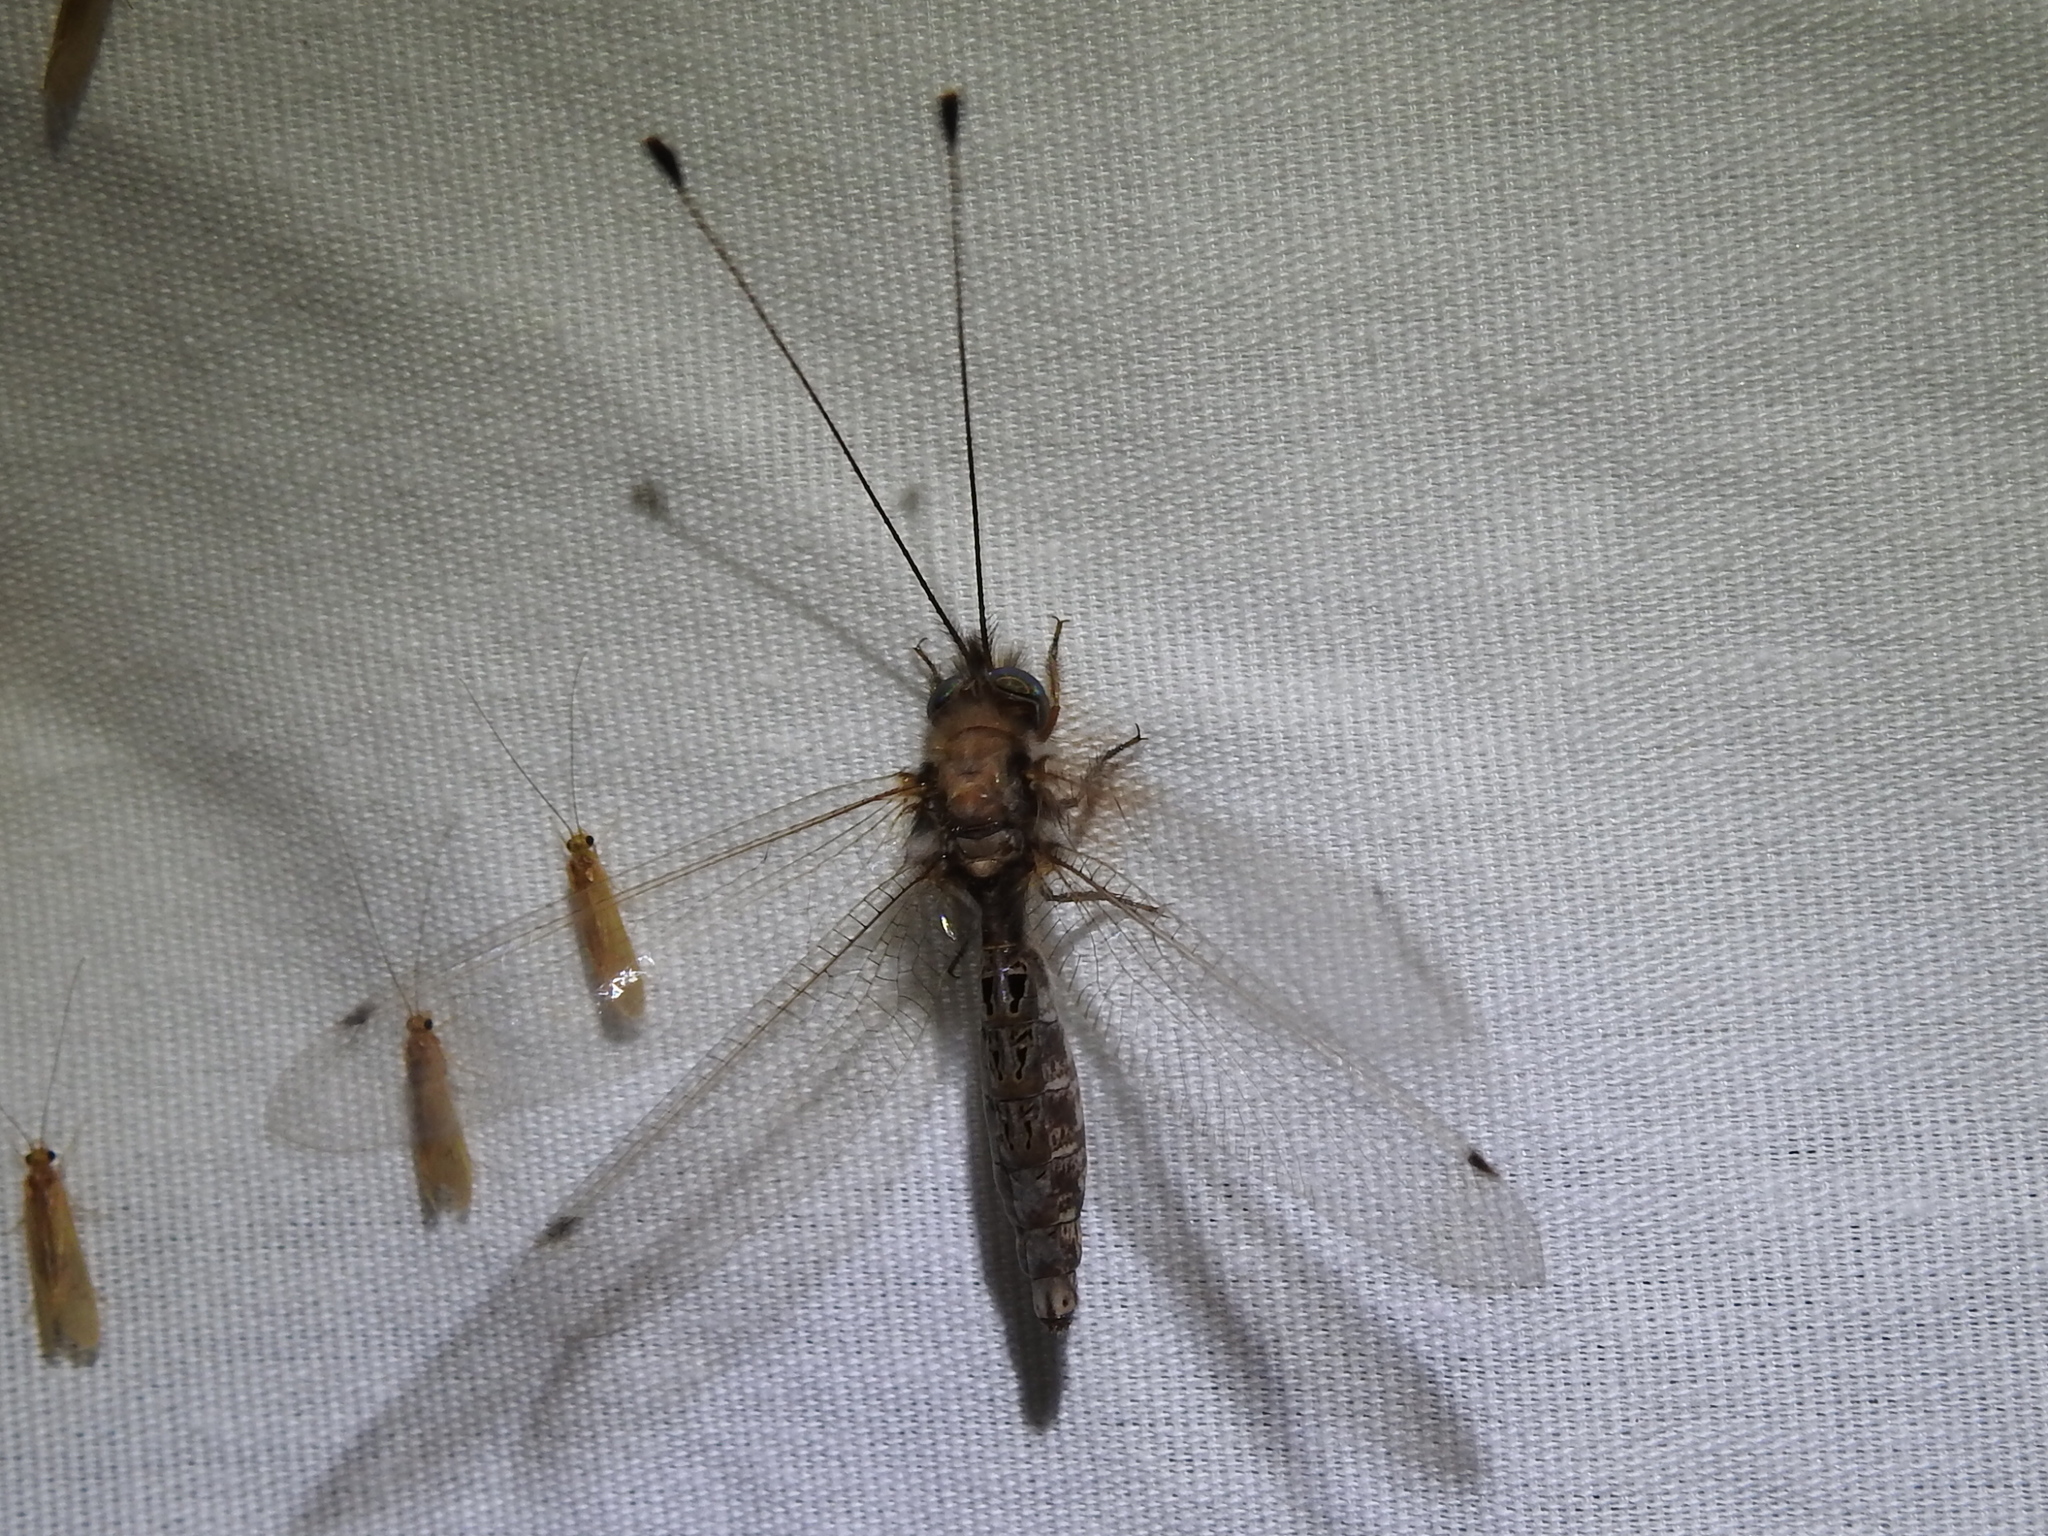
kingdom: Animalia
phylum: Arthropoda
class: Insecta
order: Neuroptera
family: Ascalaphidae
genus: Ululodes
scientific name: Ululodes macleayanus
